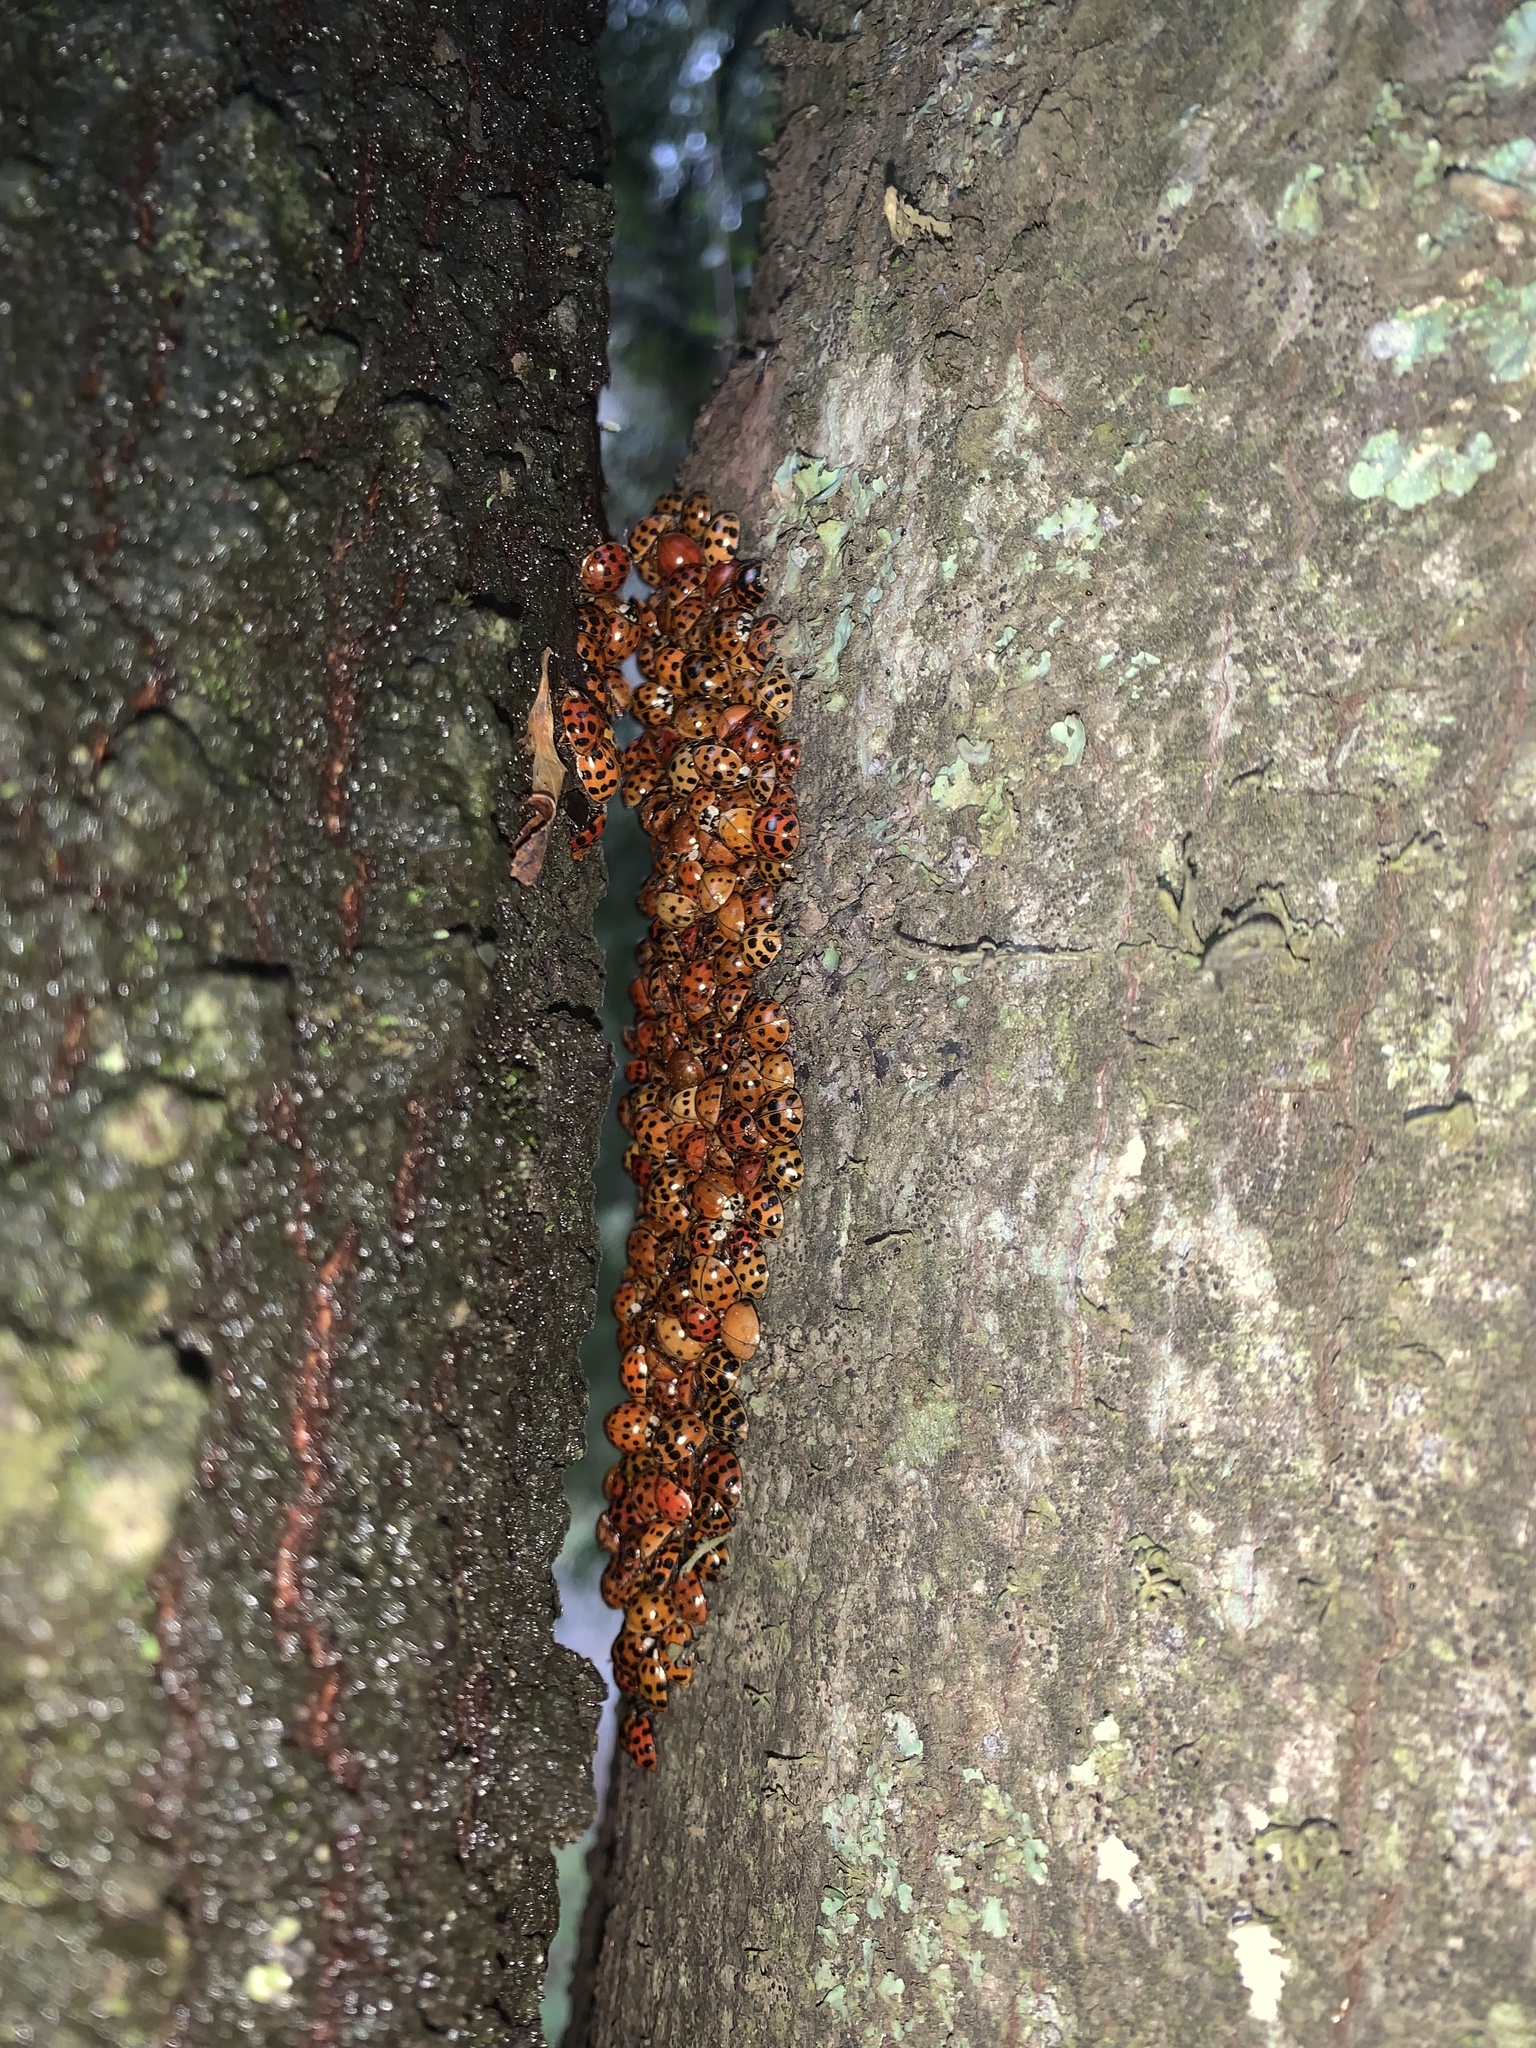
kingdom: Animalia
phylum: Arthropoda
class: Insecta
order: Coleoptera
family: Coccinellidae
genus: Harmonia
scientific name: Harmonia axyridis
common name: Harlequin ladybird
